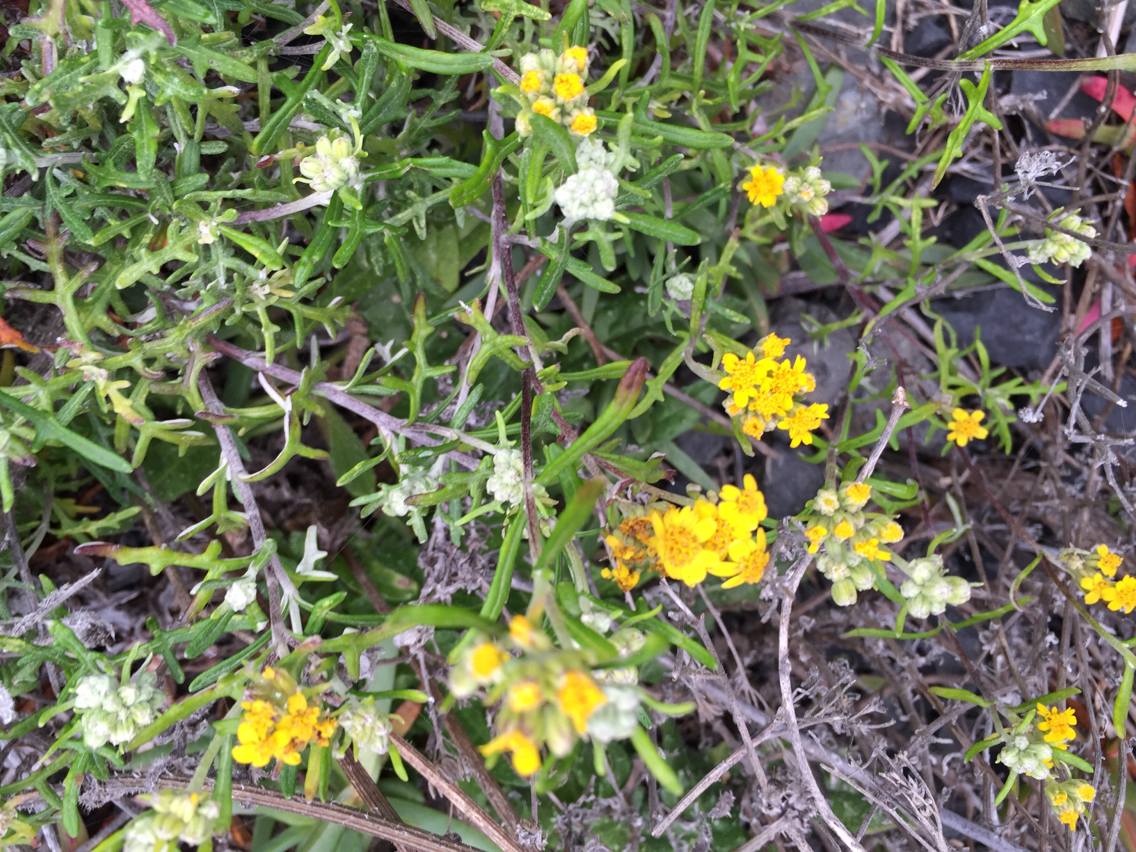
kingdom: Plantae
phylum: Tracheophyta
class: Magnoliopsida
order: Asterales
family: Asteraceae
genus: Eriophyllum
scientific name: Eriophyllum staechadifolium
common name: Lizardtail
